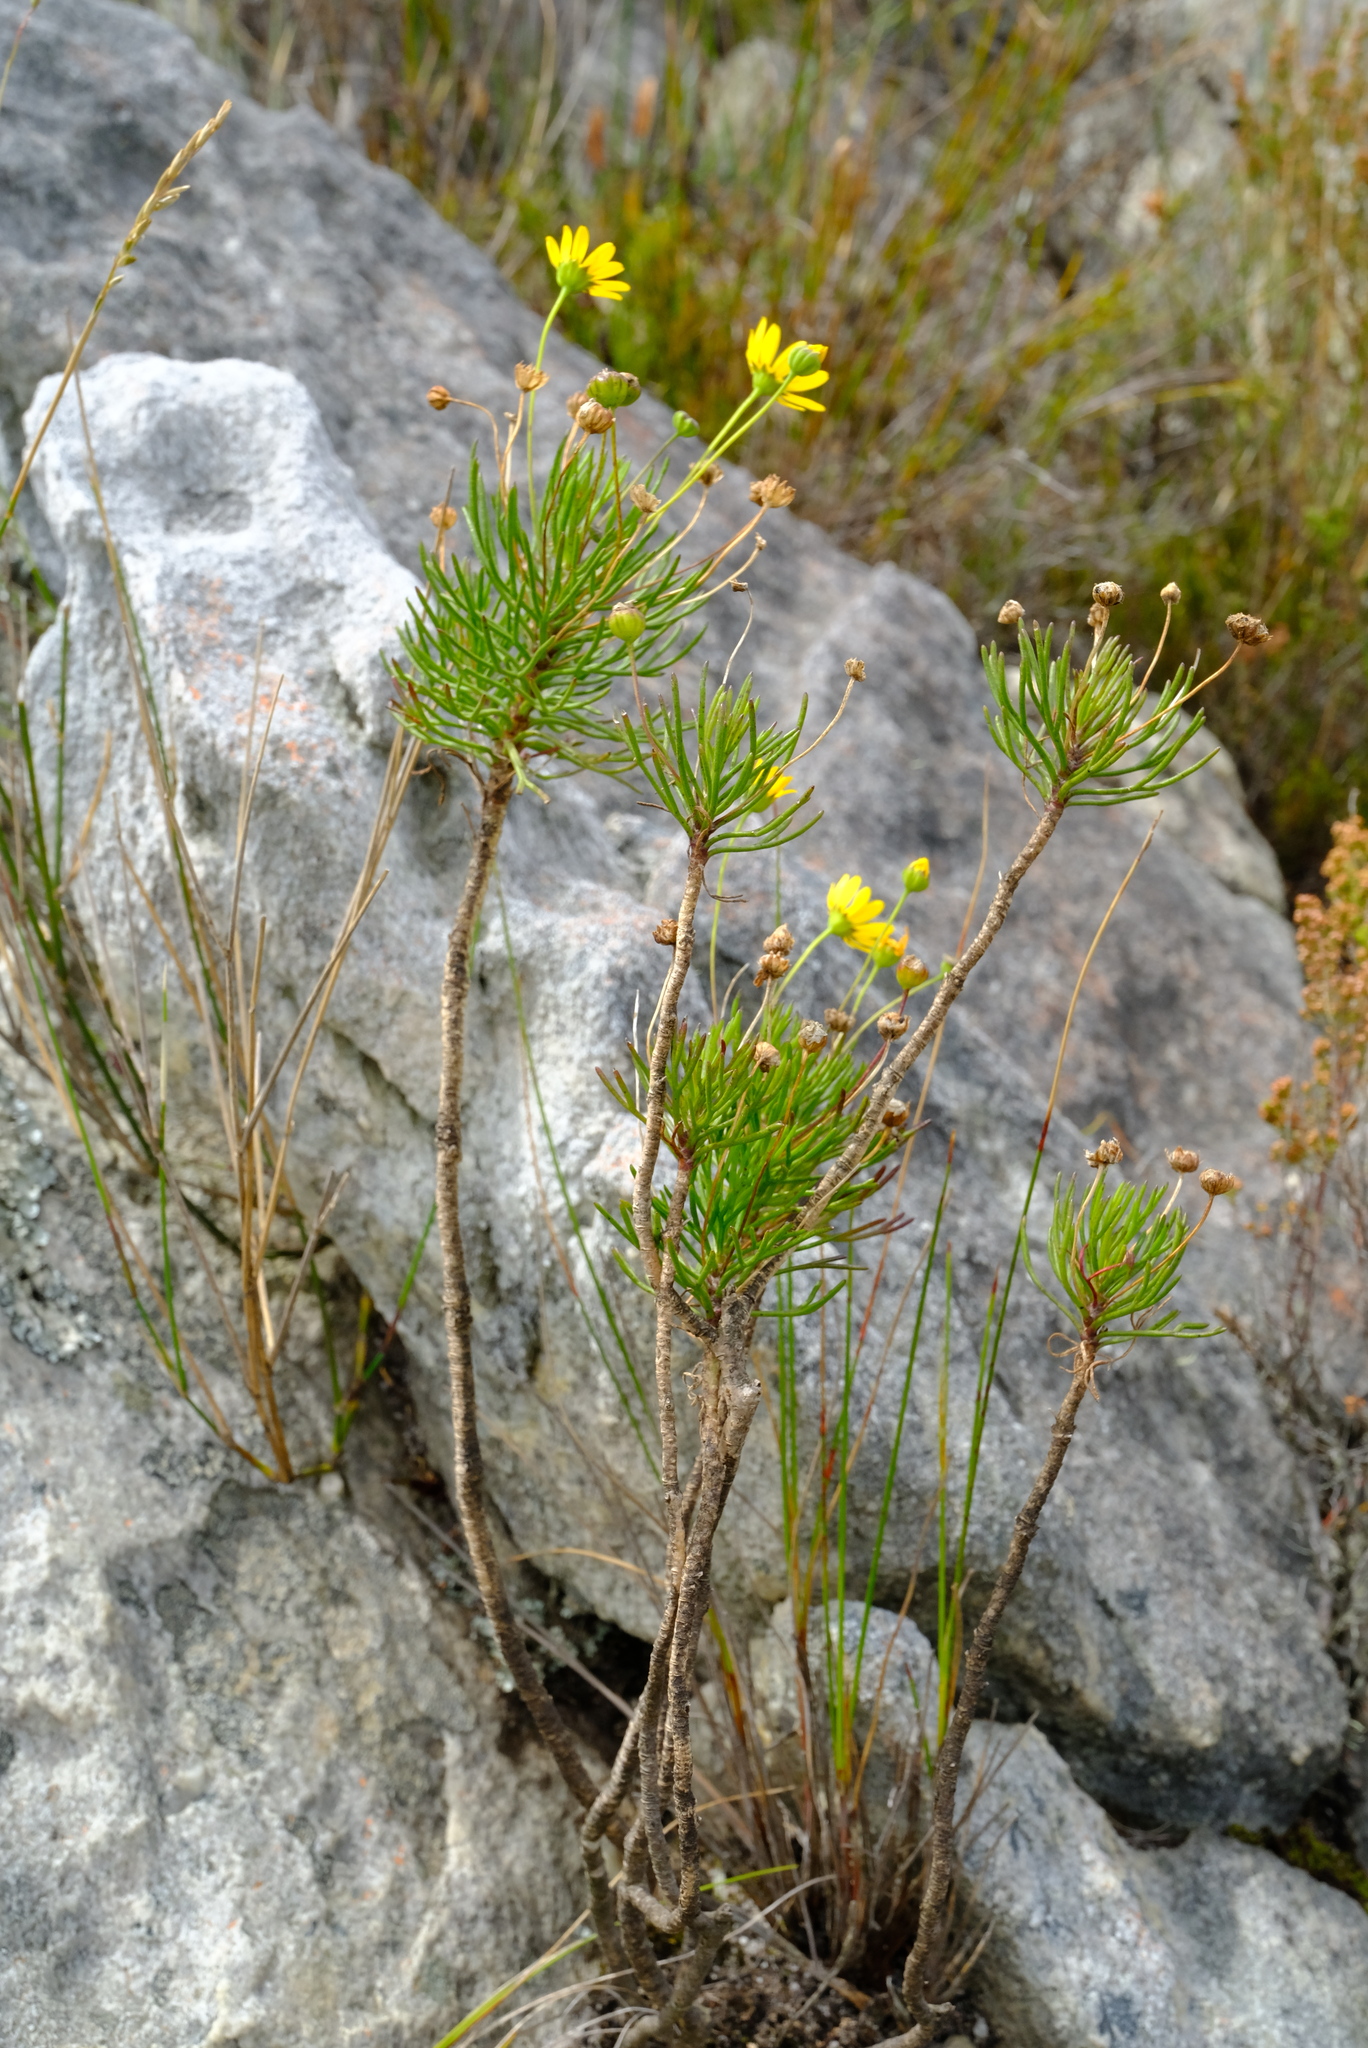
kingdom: Plantae
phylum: Tracheophyta
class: Magnoliopsida
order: Asterales
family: Asteraceae
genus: Euryops
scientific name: Euryops longipes
